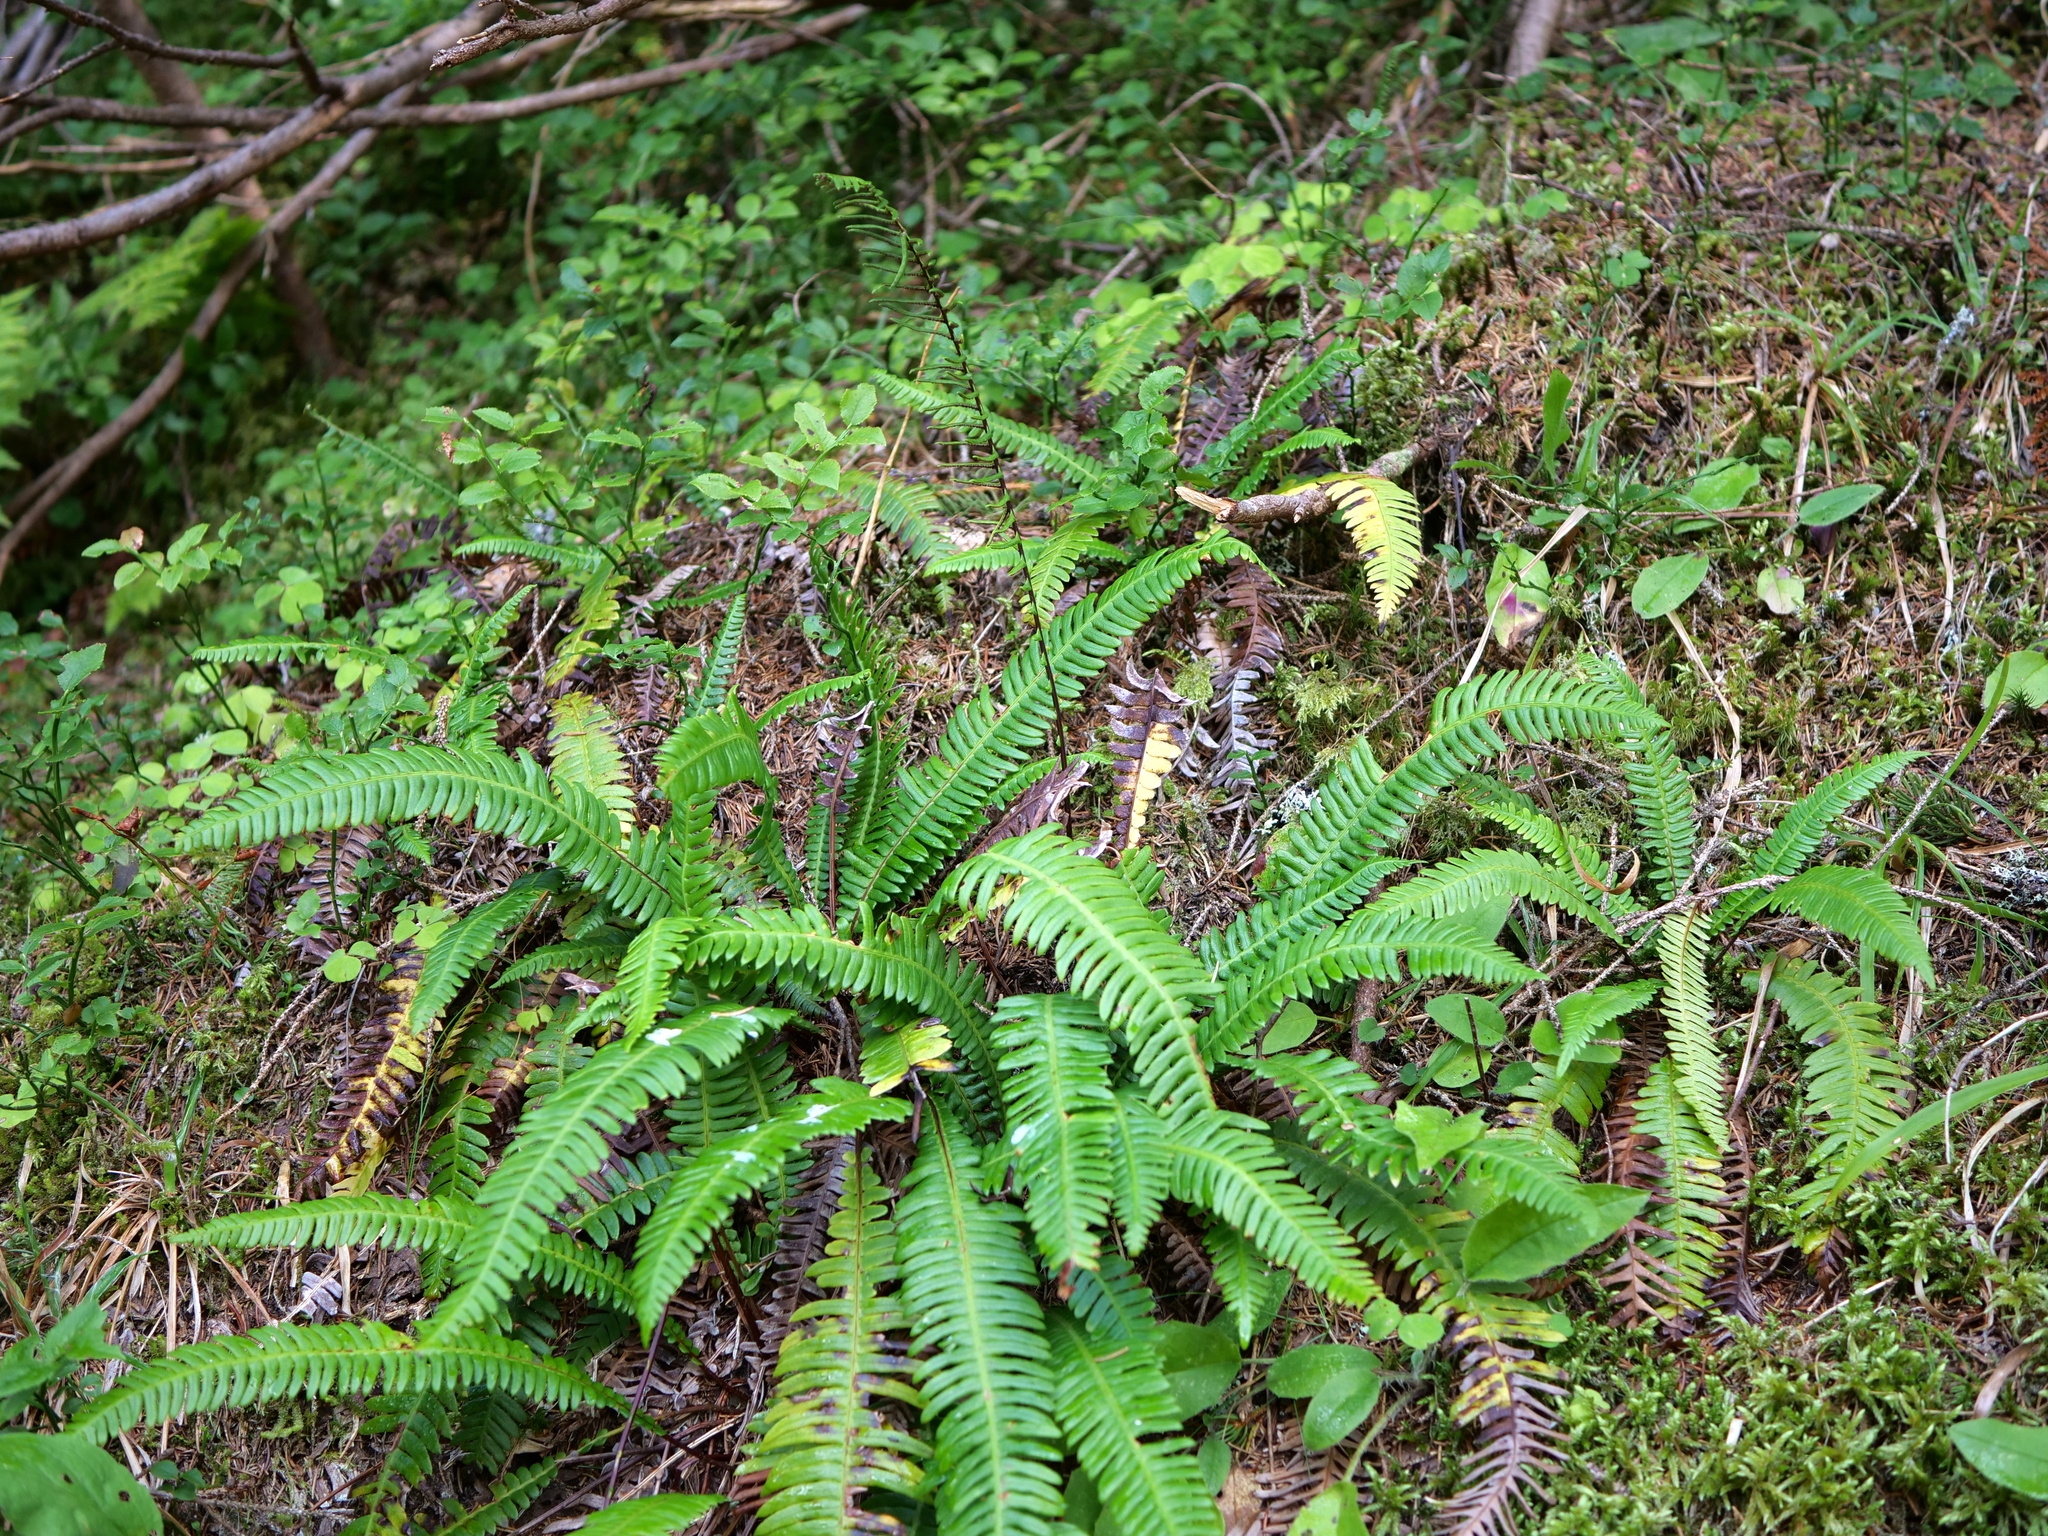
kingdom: Plantae
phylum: Tracheophyta
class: Polypodiopsida
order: Polypodiales
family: Blechnaceae
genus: Struthiopteris
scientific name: Struthiopteris spicant
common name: Deer fern
